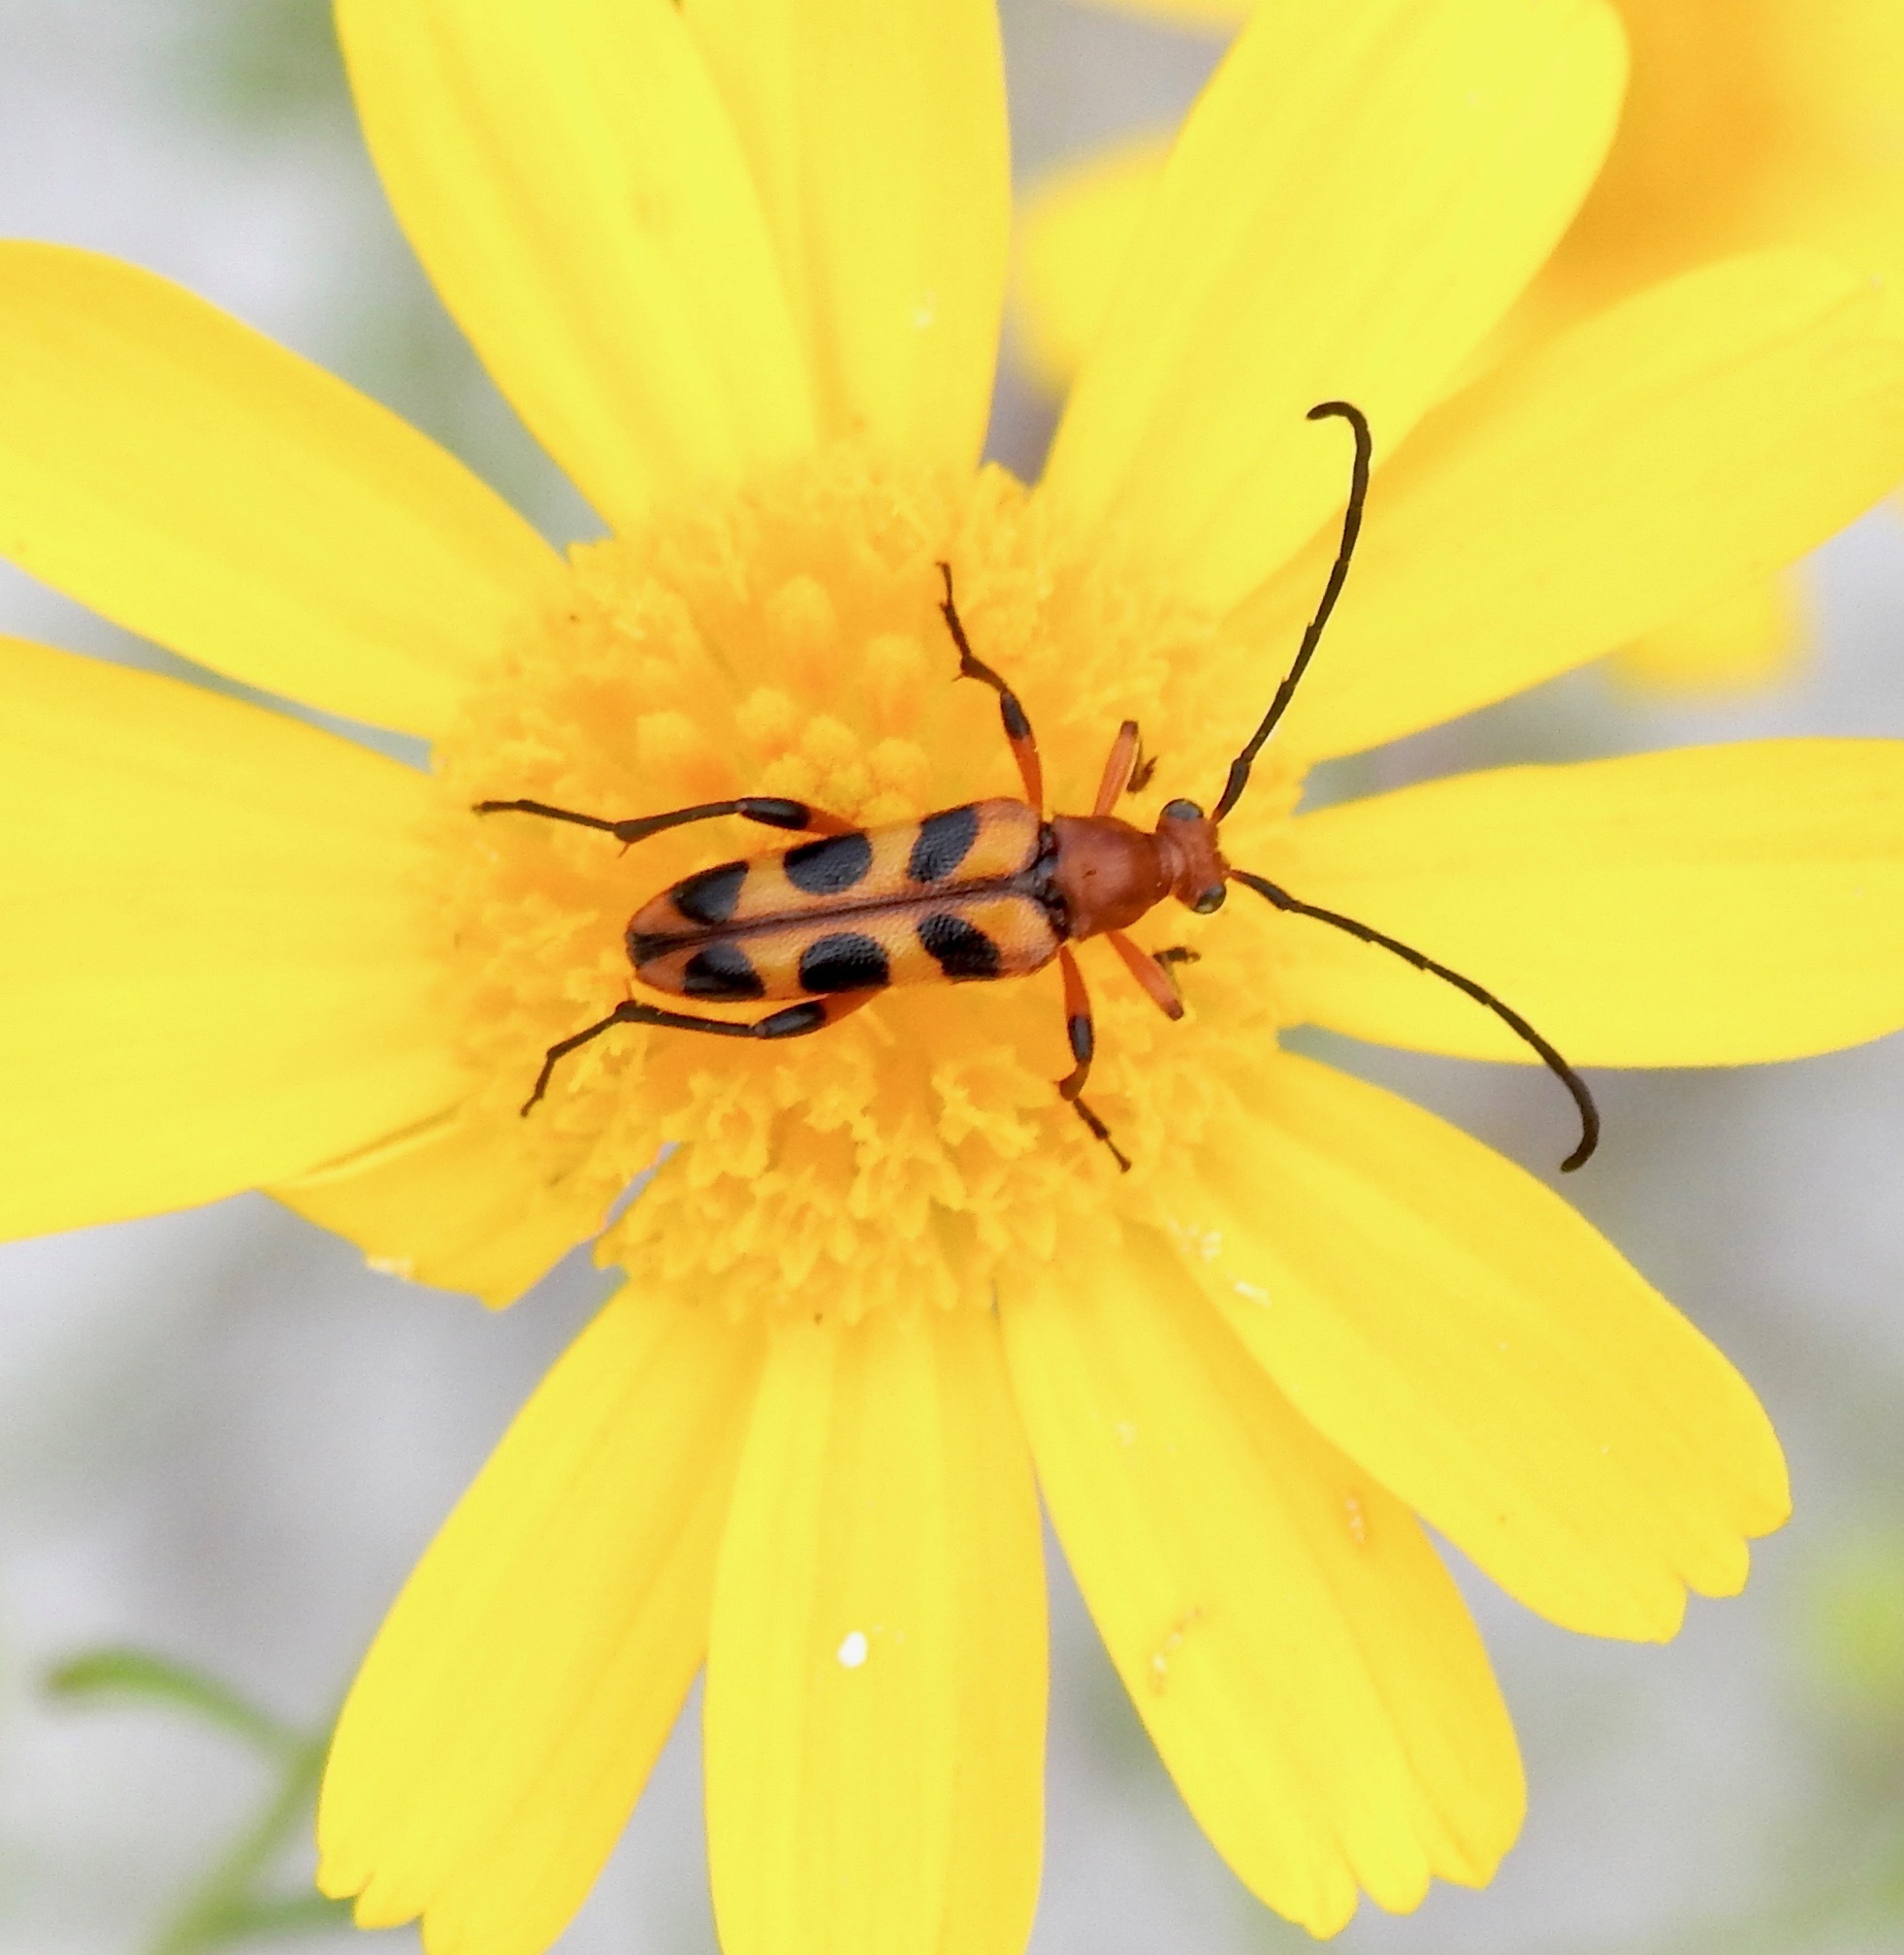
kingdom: Animalia
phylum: Arthropoda
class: Insecta
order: Coleoptera
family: Cerambycidae
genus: Strangalia
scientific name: Strangalia sexnotata
